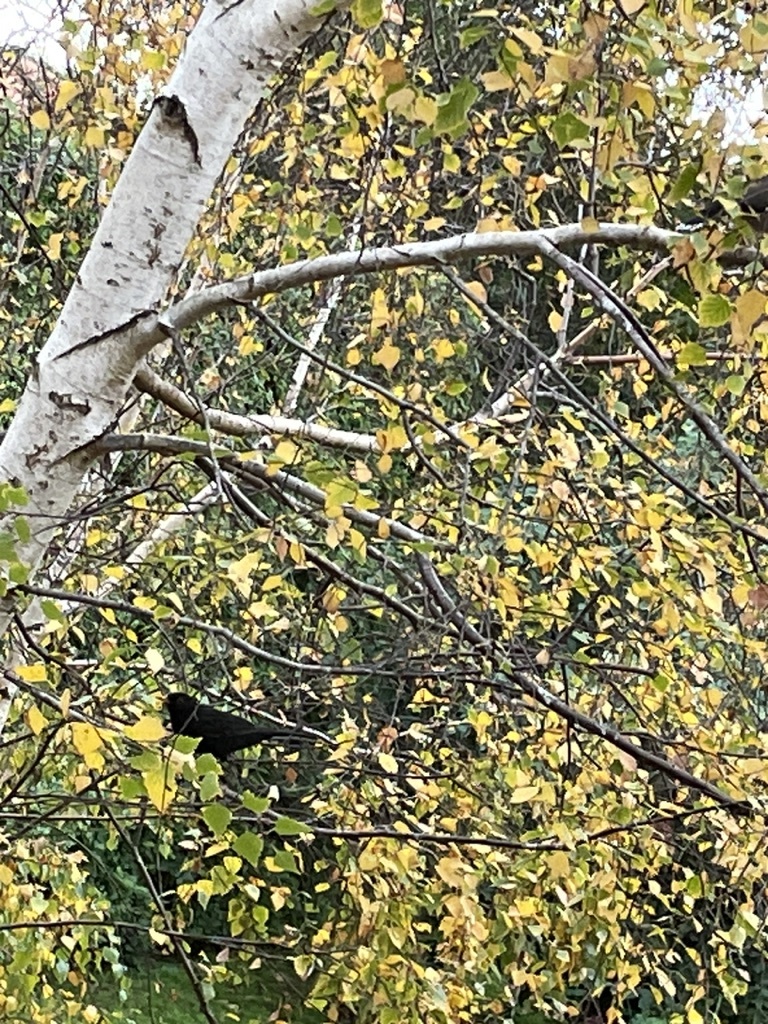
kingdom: Animalia
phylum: Chordata
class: Aves
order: Passeriformes
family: Turdidae
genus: Turdus
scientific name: Turdus merula
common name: Common blackbird
